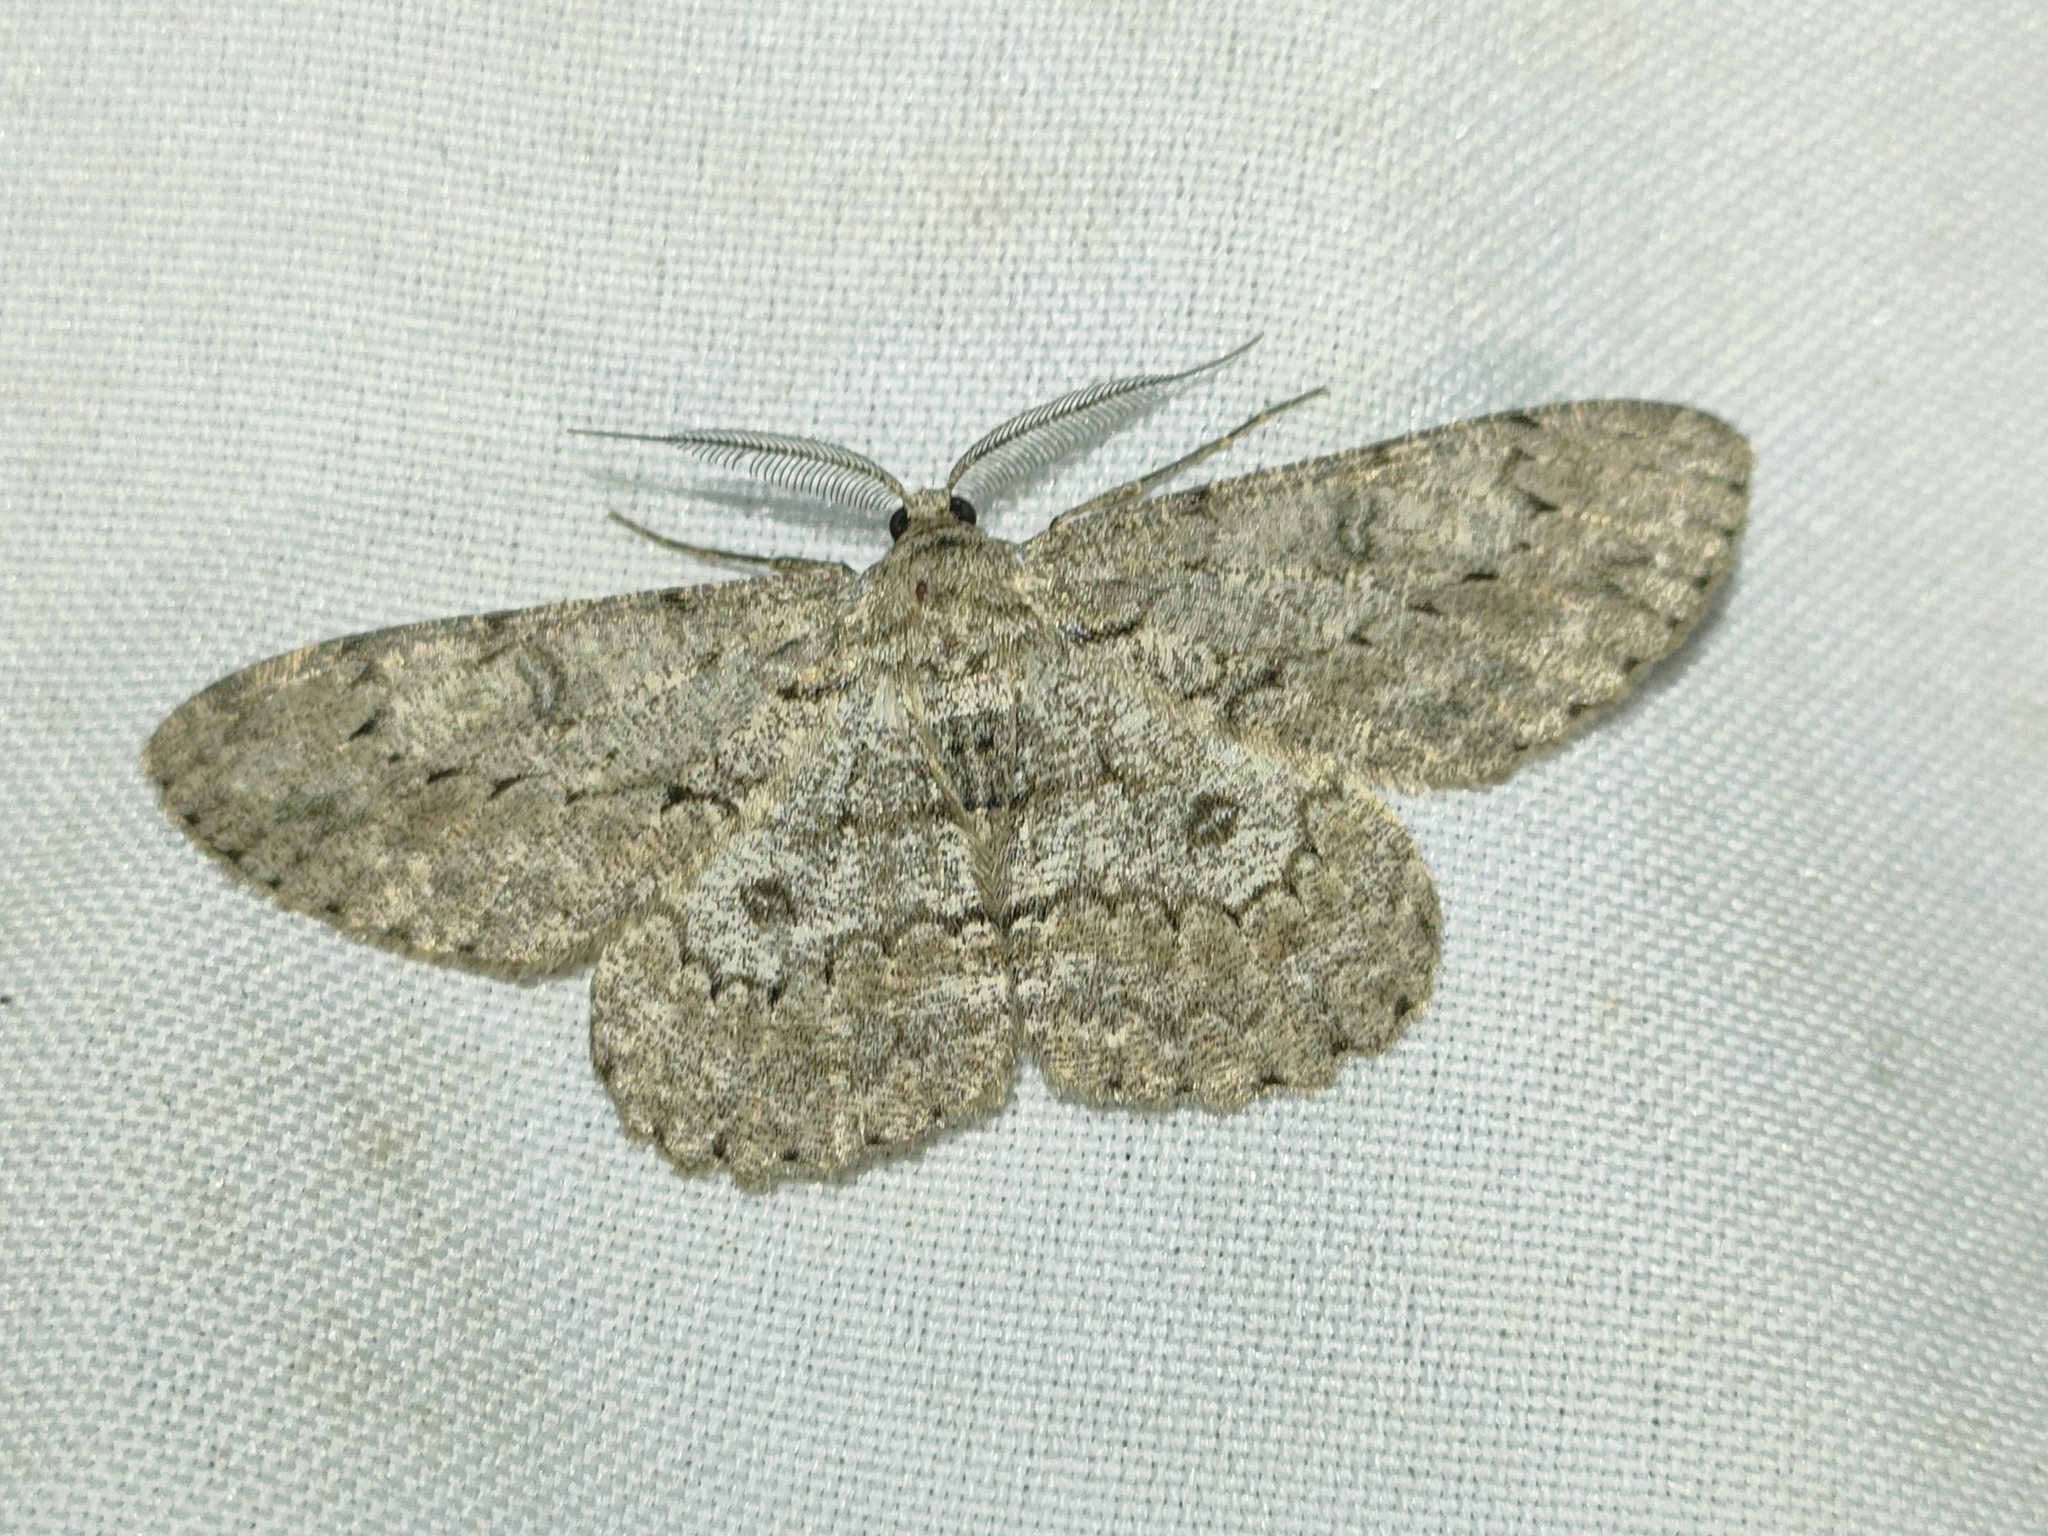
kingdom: Animalia
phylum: Arthropoda
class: Insecta
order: Lepidoptera
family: Geometridae
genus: Hypomecis
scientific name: Hypomecis punctinalis
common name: Pale oak beauty
